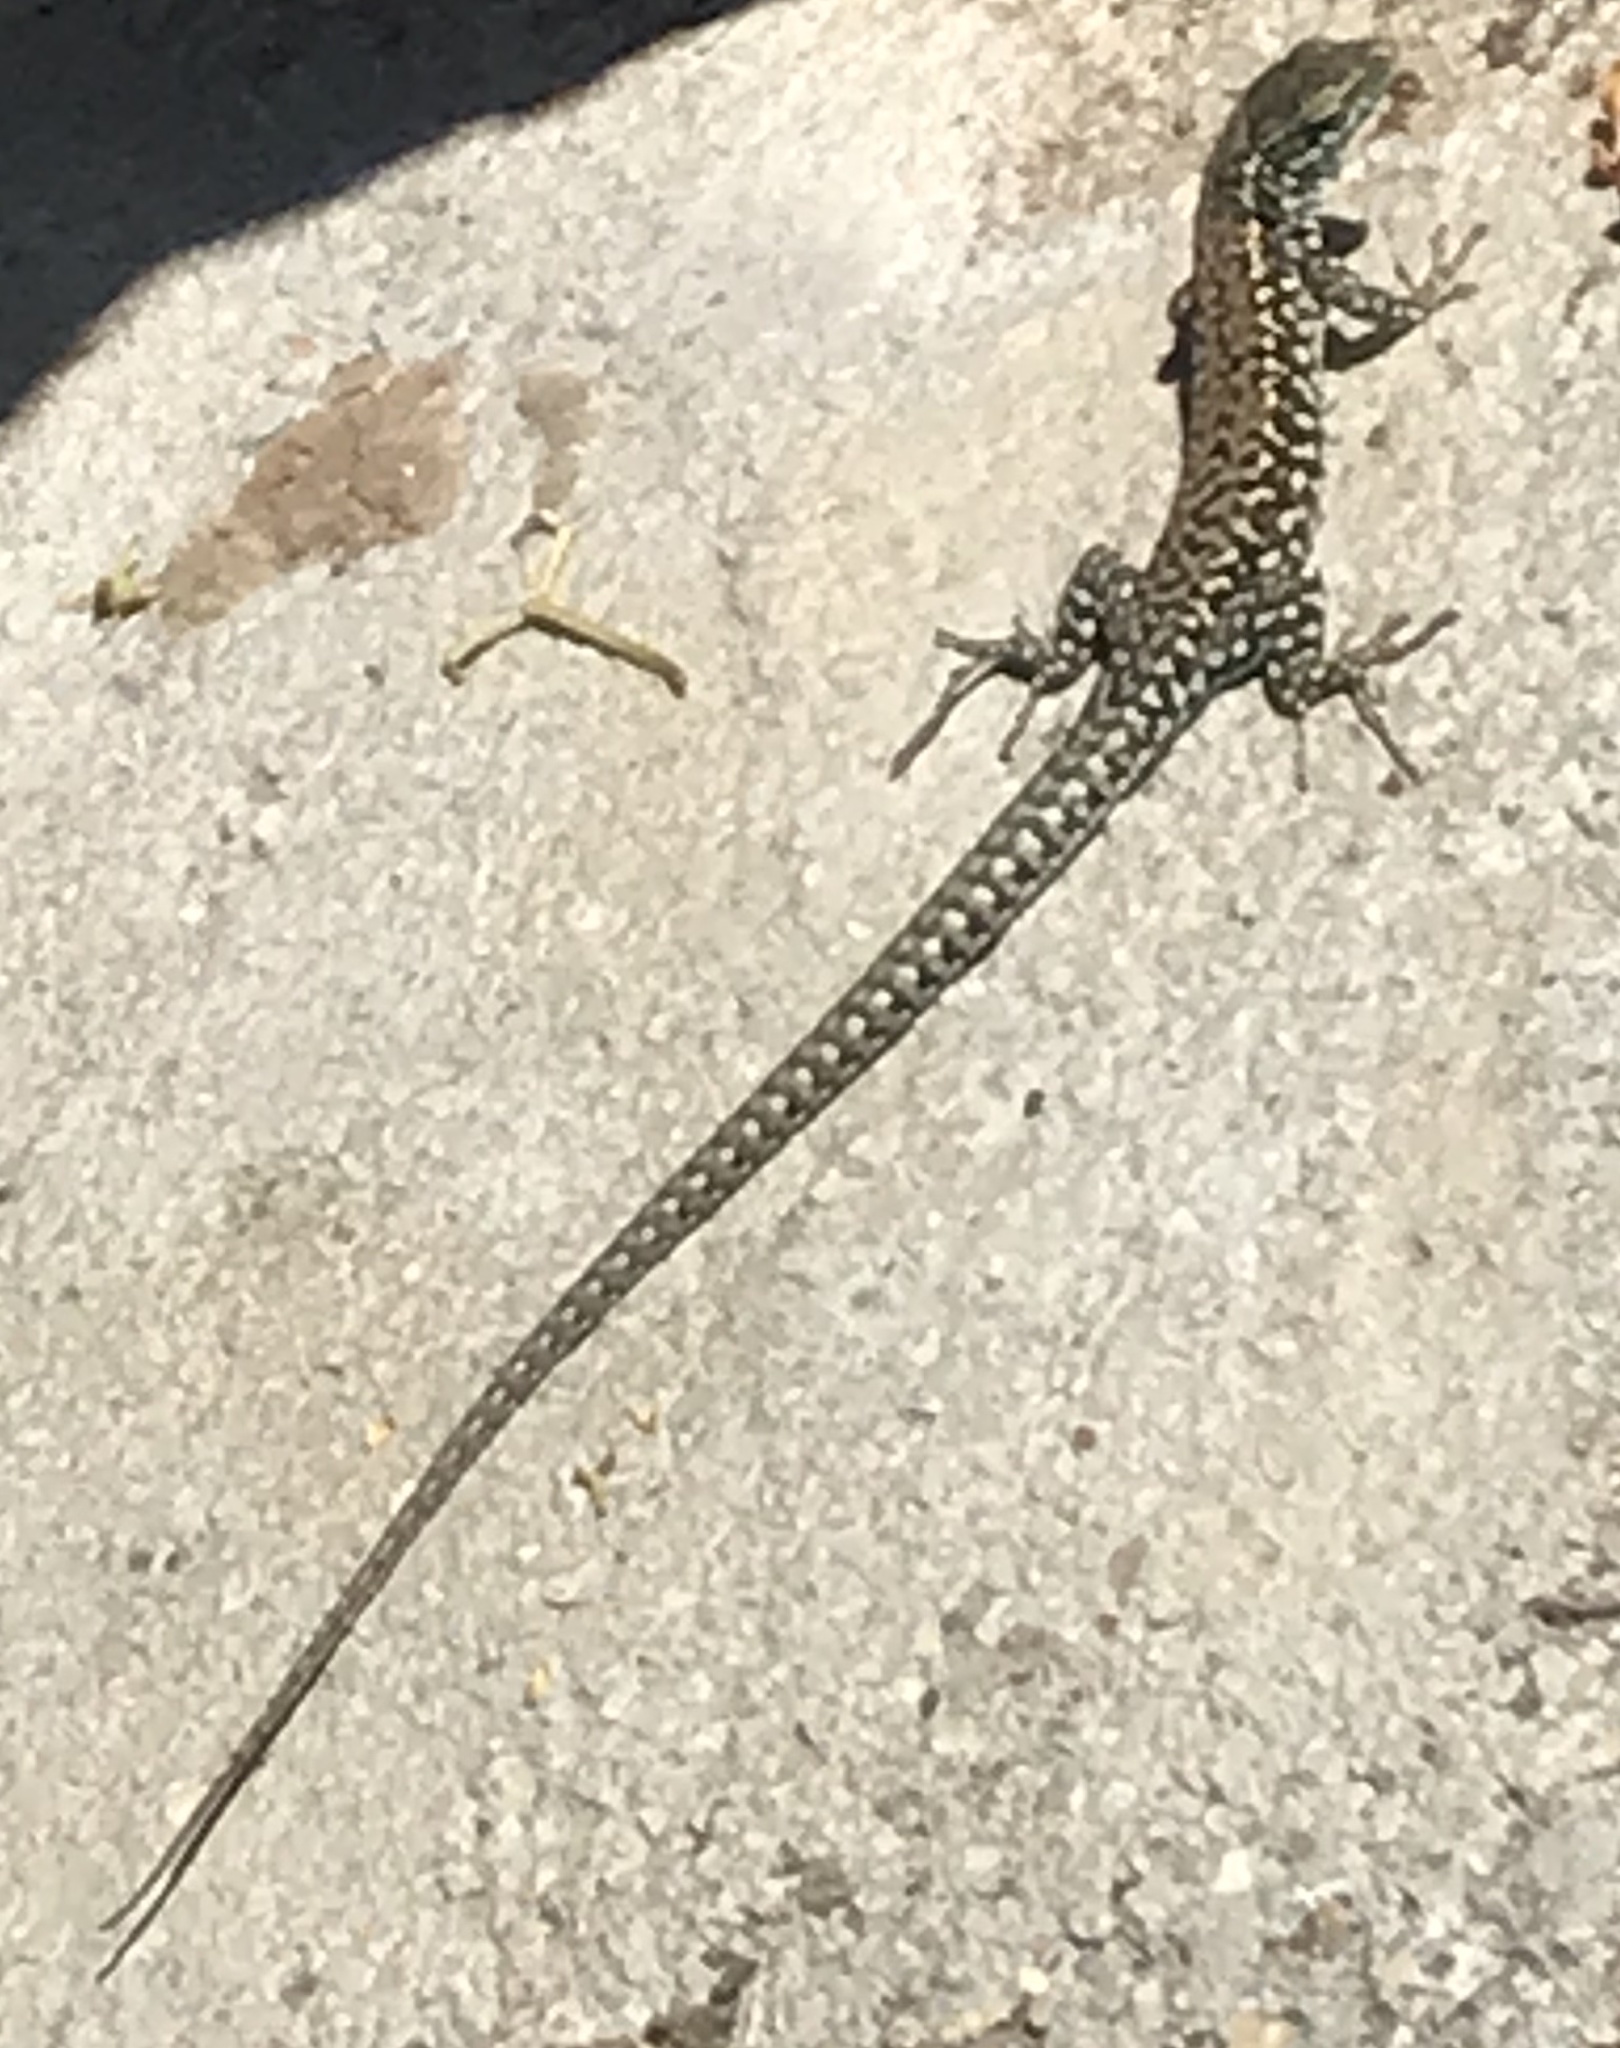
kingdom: Animalia
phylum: Chordata
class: Squamata
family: Lacertidae
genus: Podarcis
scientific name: Podarcis muralis
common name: Common wall lizard
